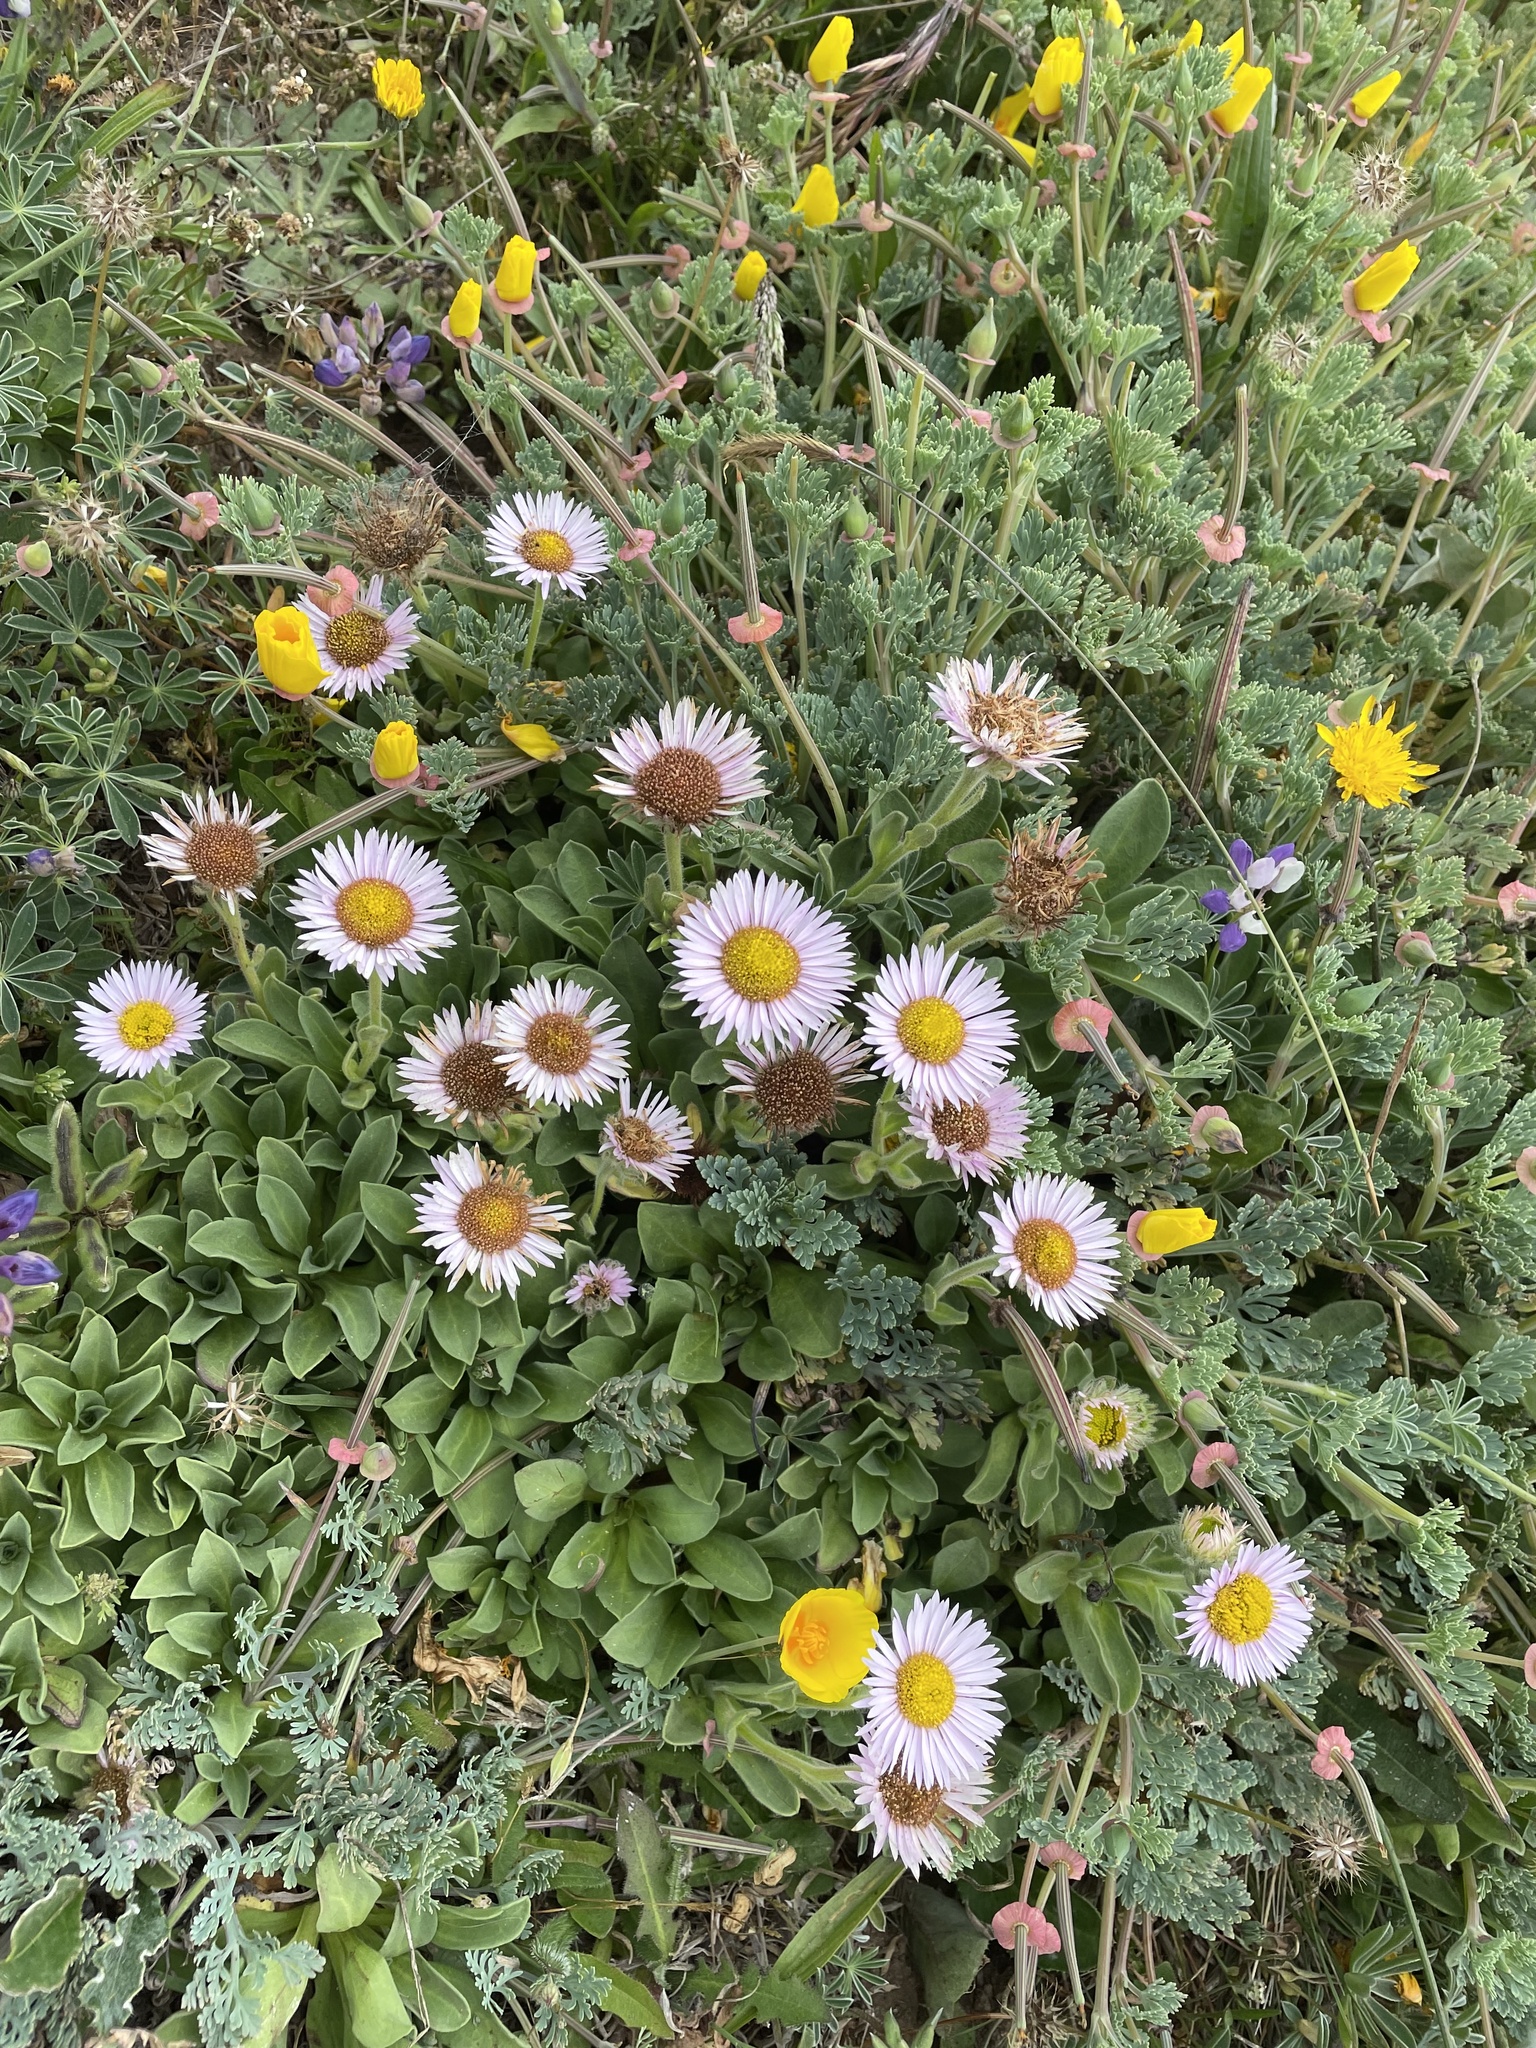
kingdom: Plantae
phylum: Tracheophyta
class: Magnoliopsida
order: Asterales
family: Asteraceae
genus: Erigeron
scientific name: Erigeron glaucus
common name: Seaside daisy
